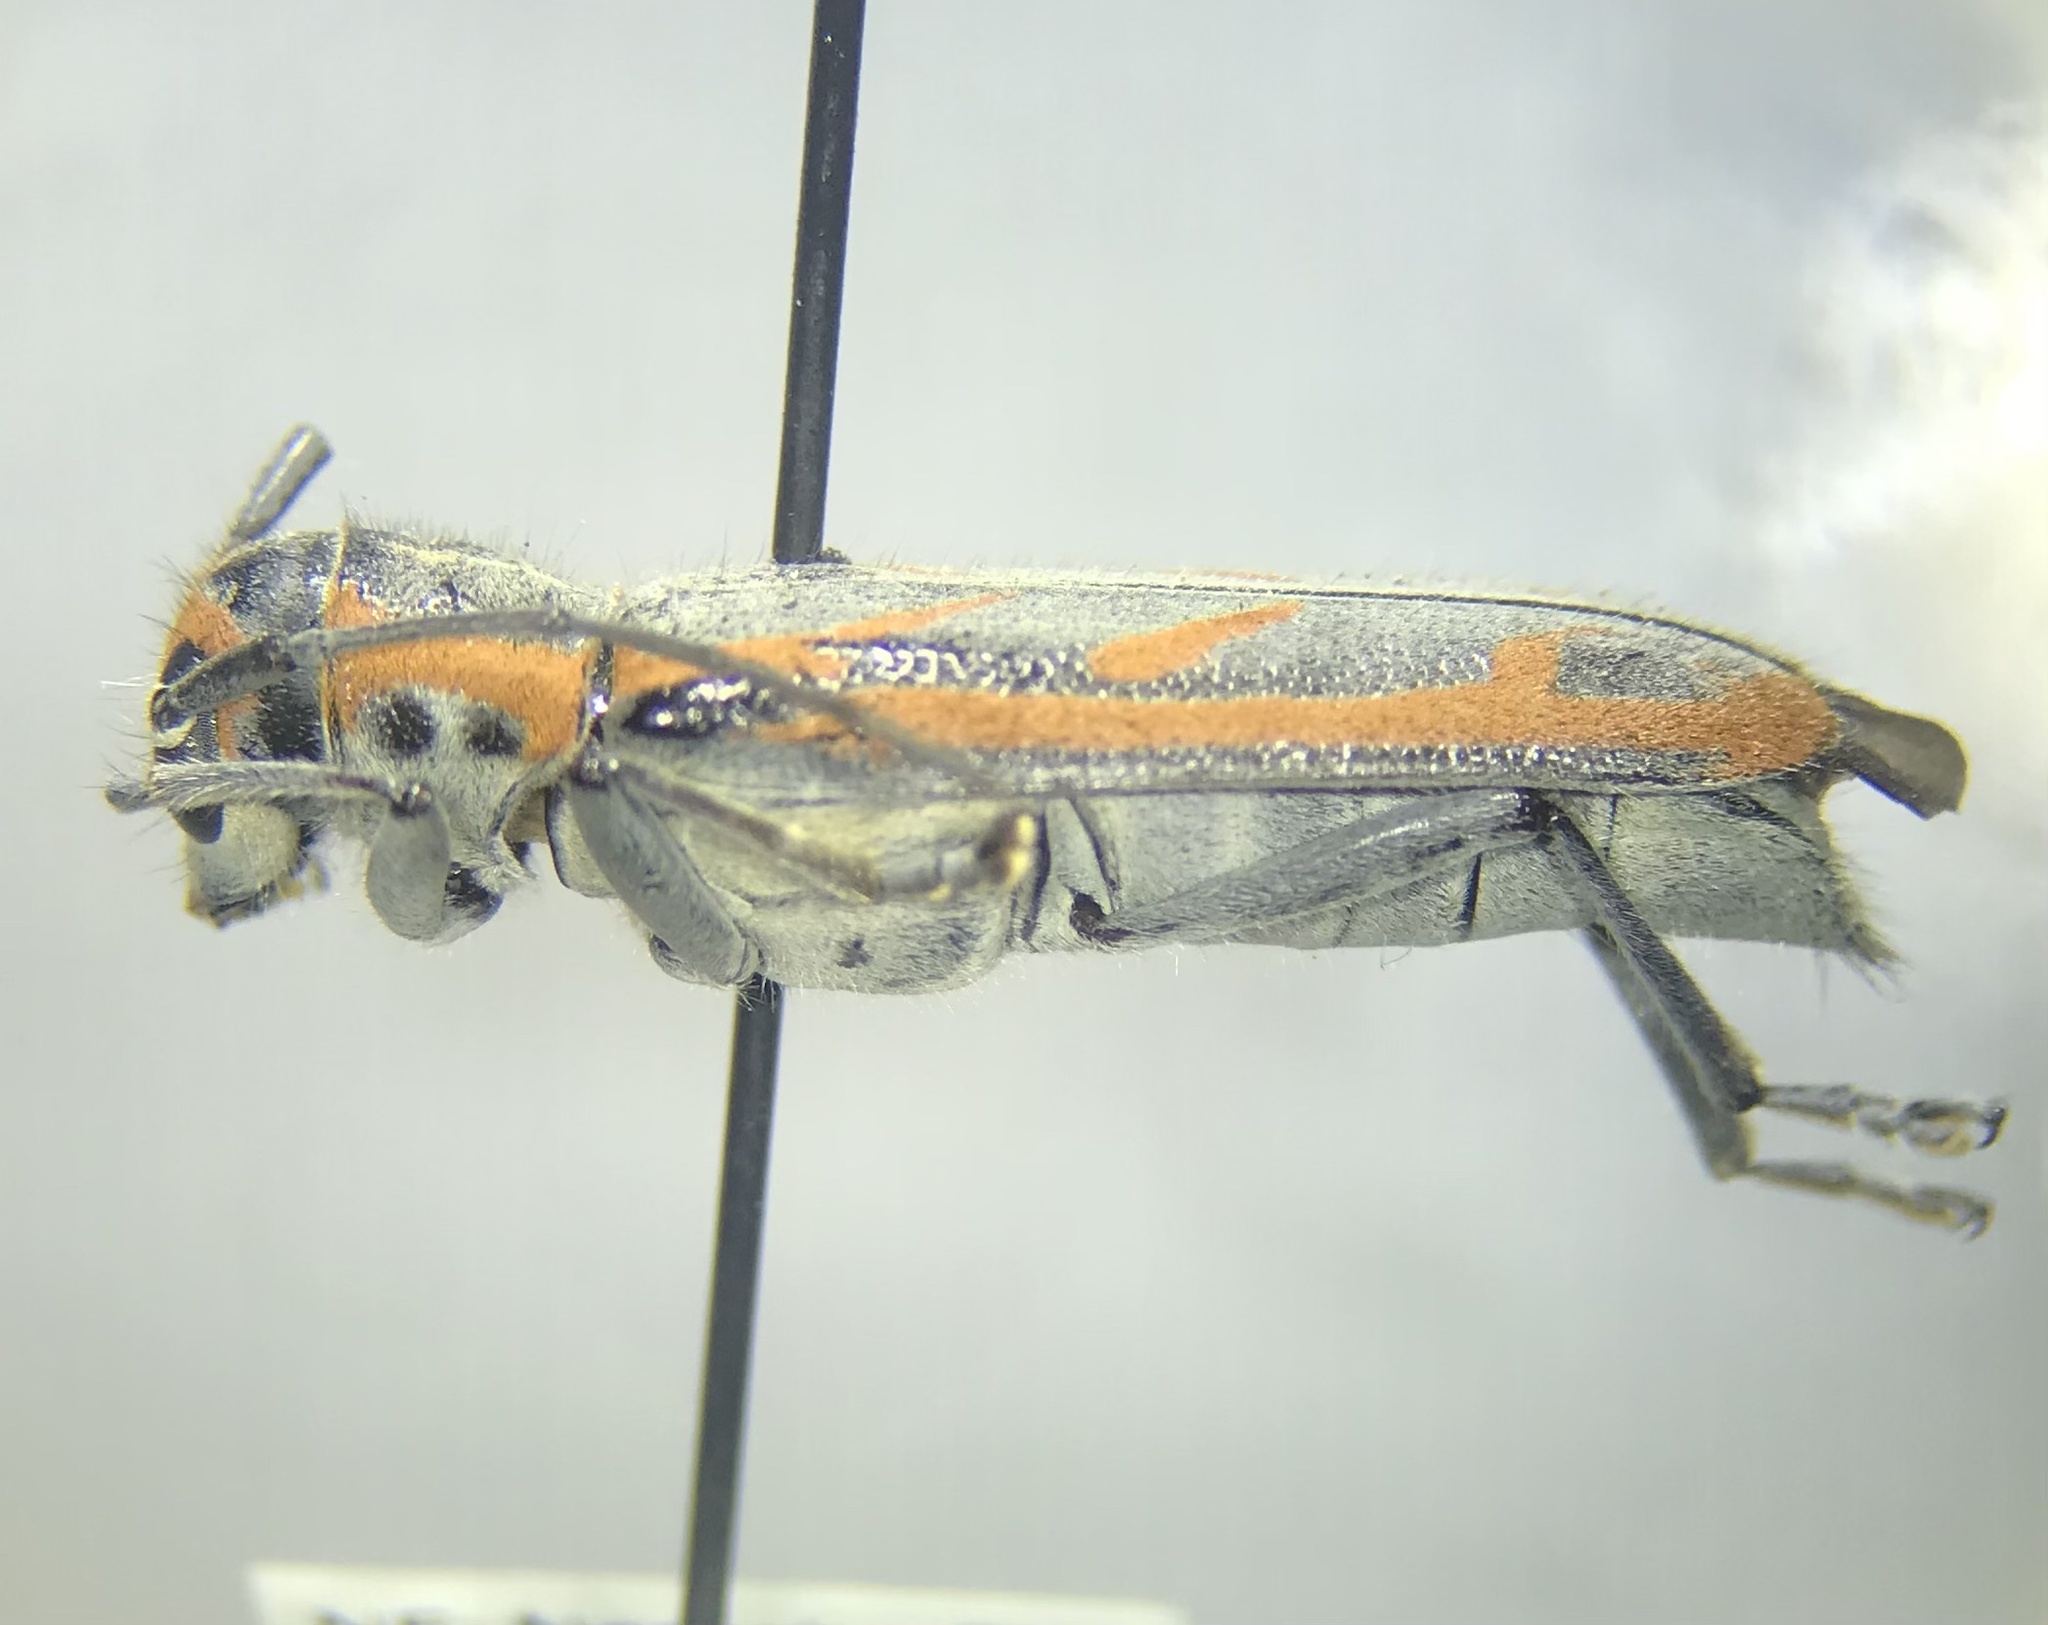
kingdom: Animalia
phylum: Arthropoda
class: Insecta
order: Coleoptera
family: Cerambycidae
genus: Saperda
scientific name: Saperda imitans
